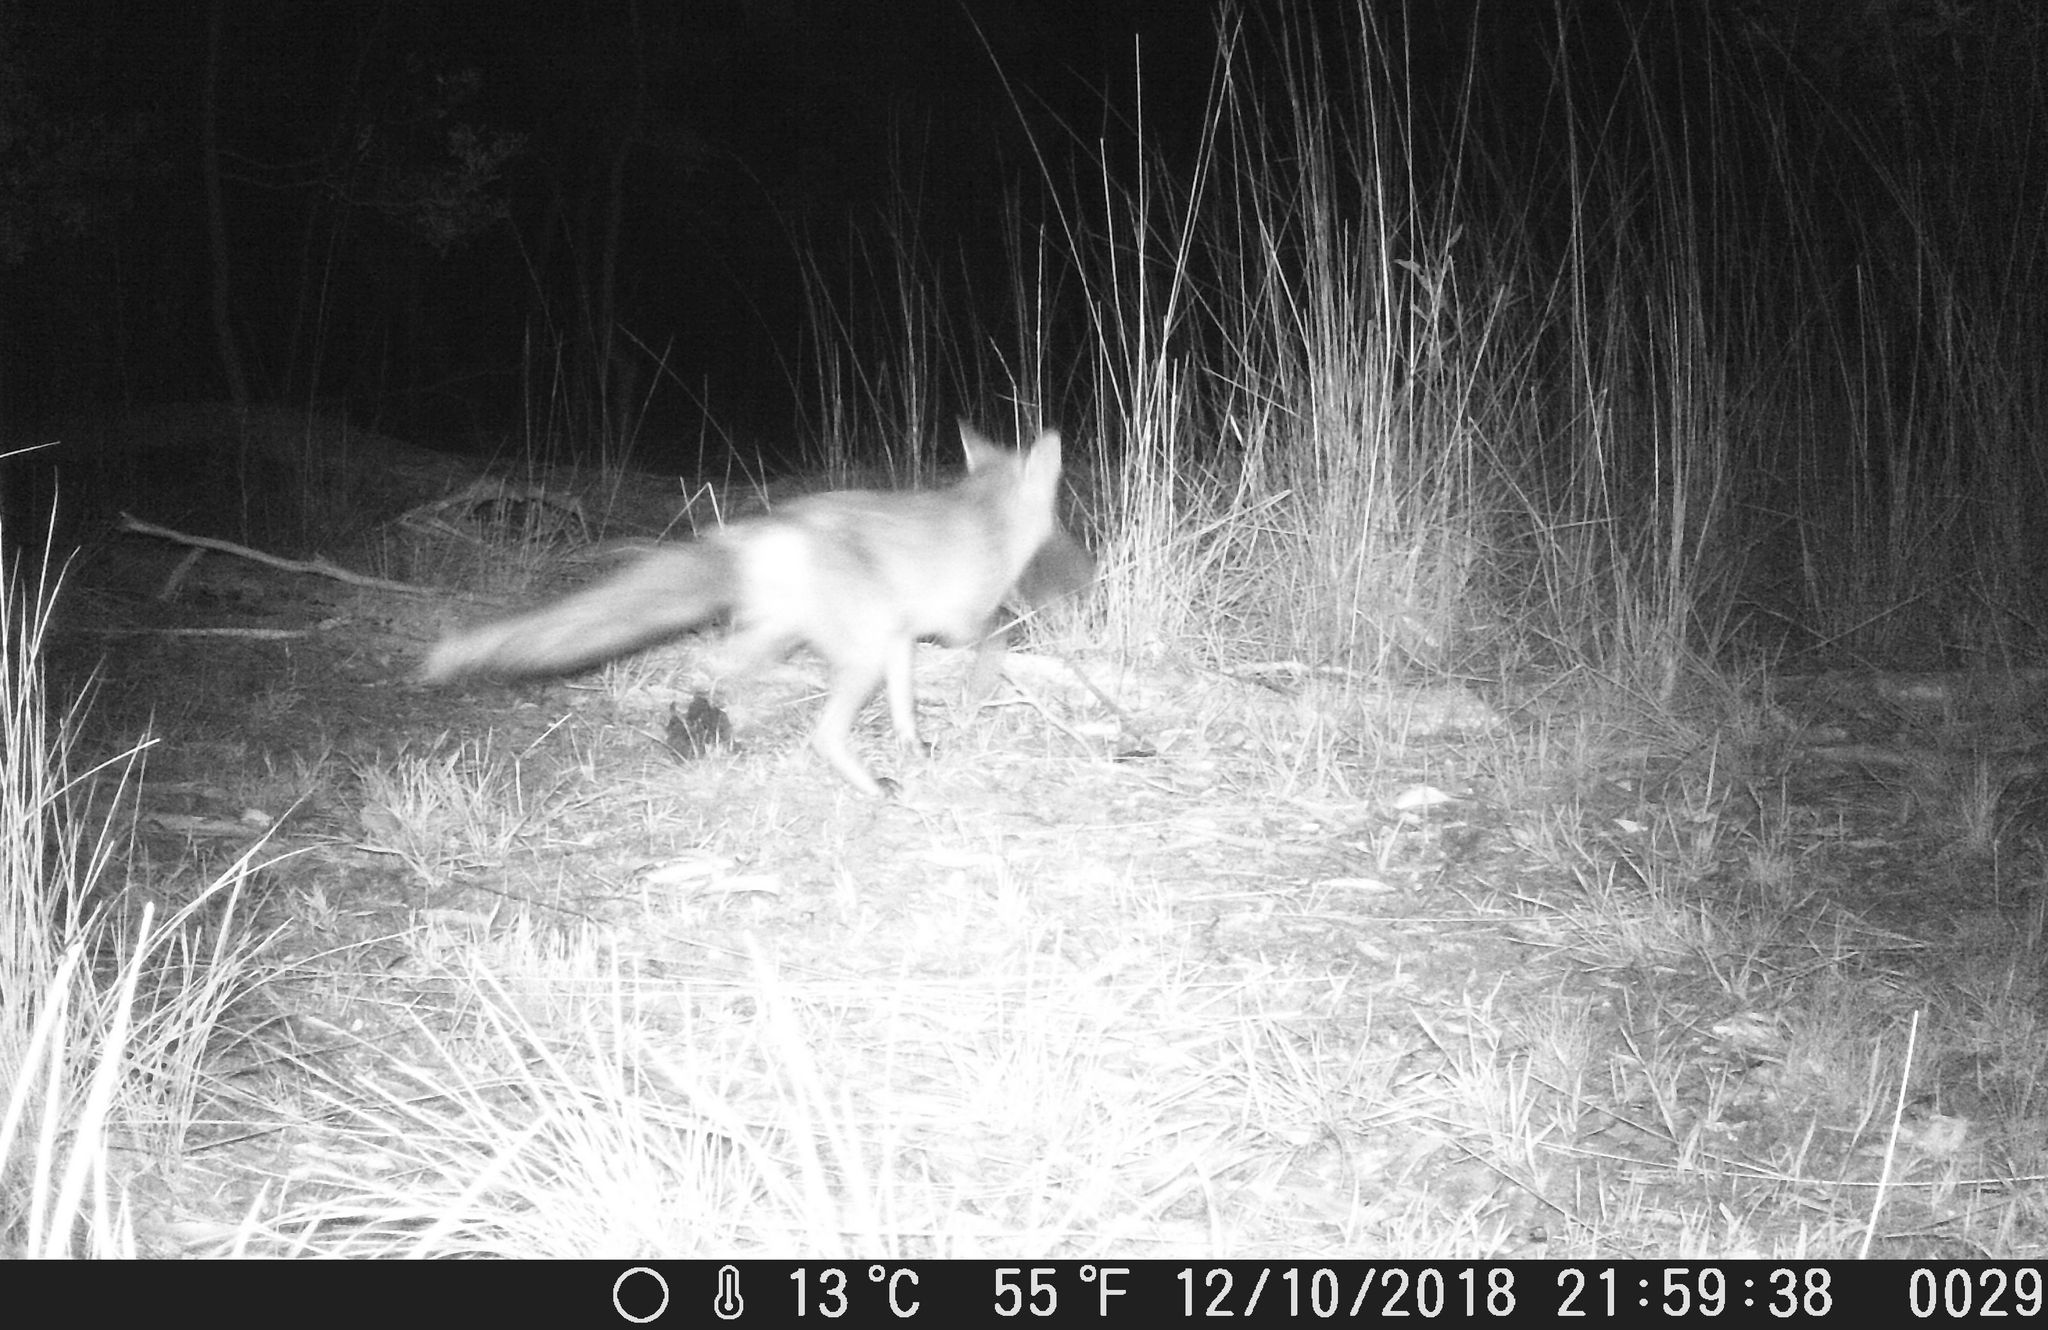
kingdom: Animalia
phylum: Chordata
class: Mammalia
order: Carnivora
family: Canidae
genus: Vulpes
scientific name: Vulpes vulpes
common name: Red fox
